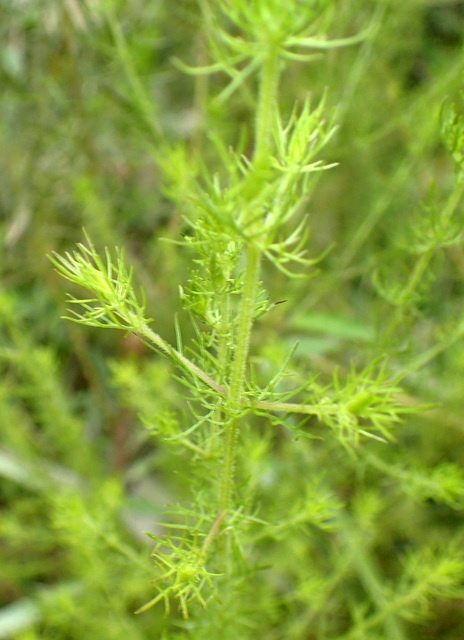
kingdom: Plantae
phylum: Tracheophyta
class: Magnoliopsida
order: Lamiales
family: Orobanchaceae
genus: Seymeria
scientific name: Seymeria cassioides
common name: Yaupon black-senna
